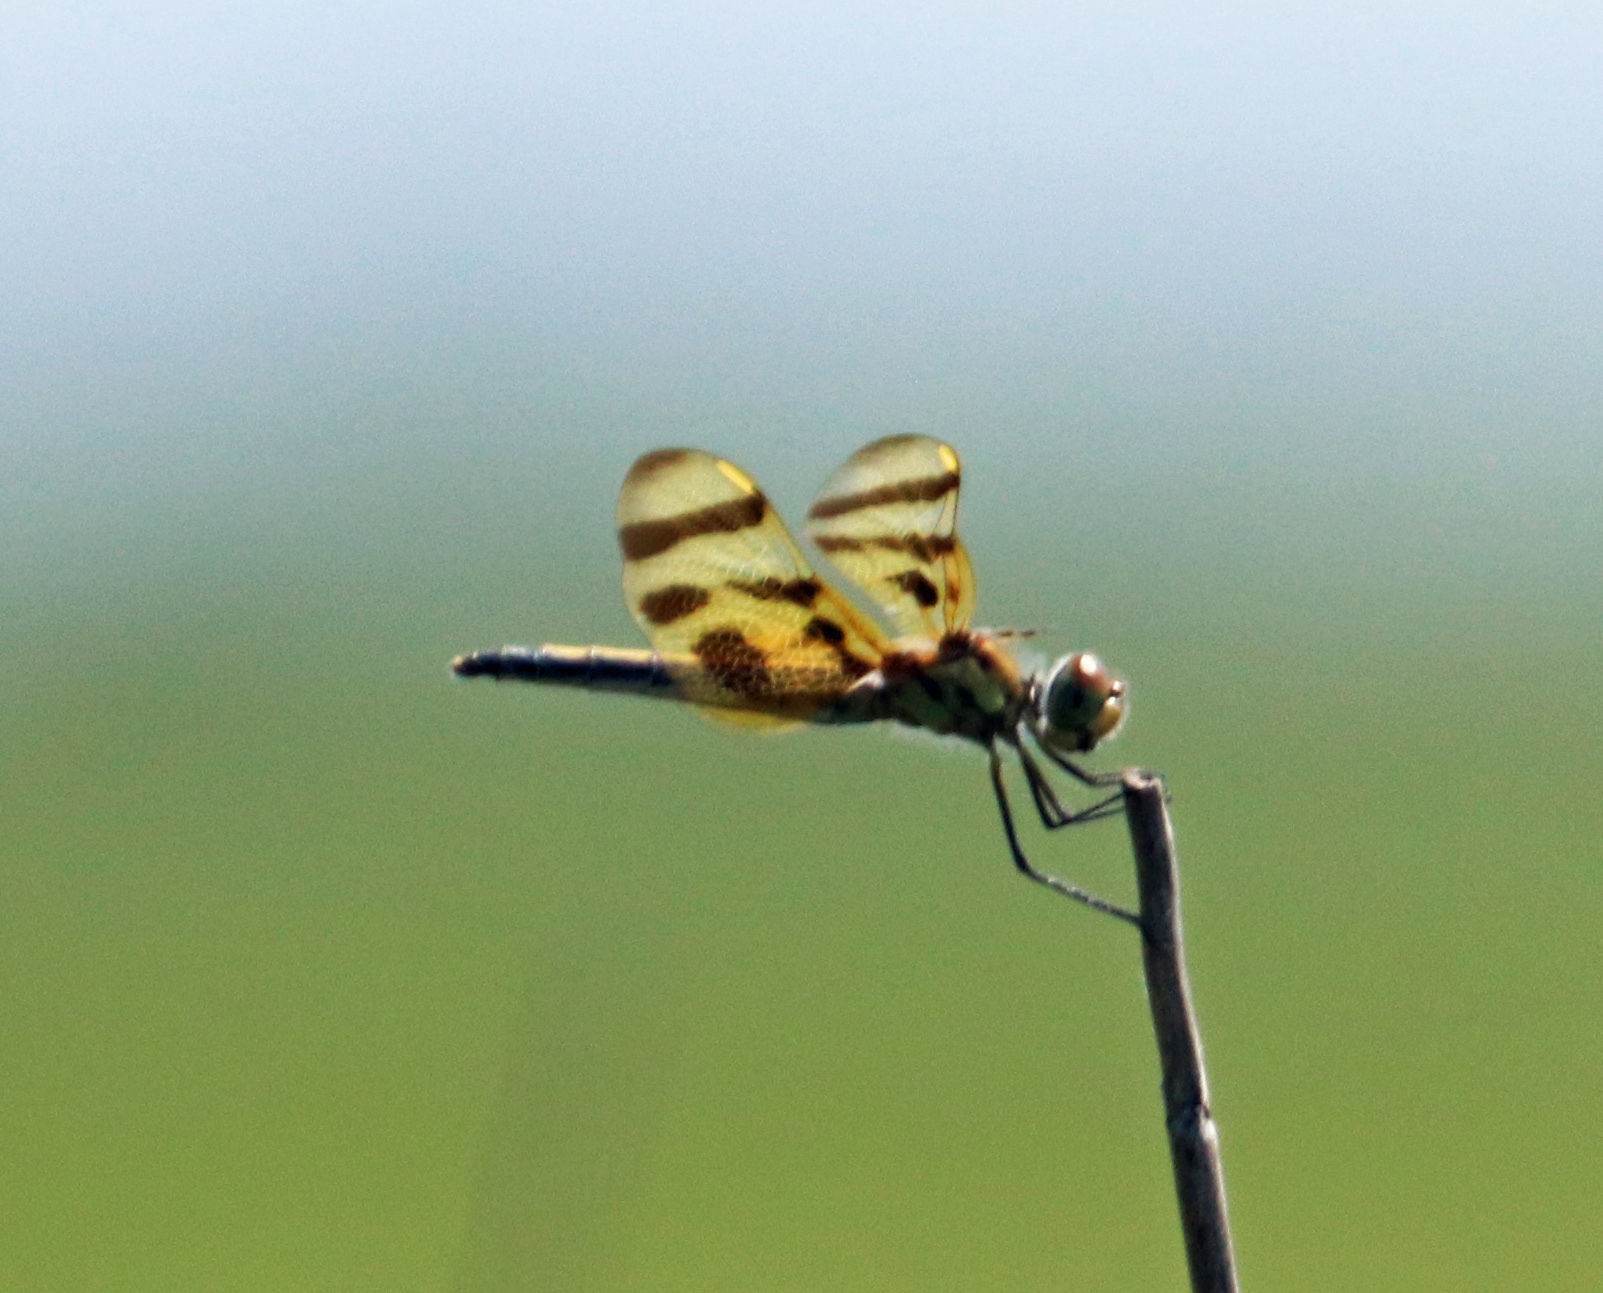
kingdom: Animalia
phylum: Arthropoda
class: Insecta
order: Odonata
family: Libellulidae
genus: Celithemis
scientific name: Celithemis eponina
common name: Halloween pennant
